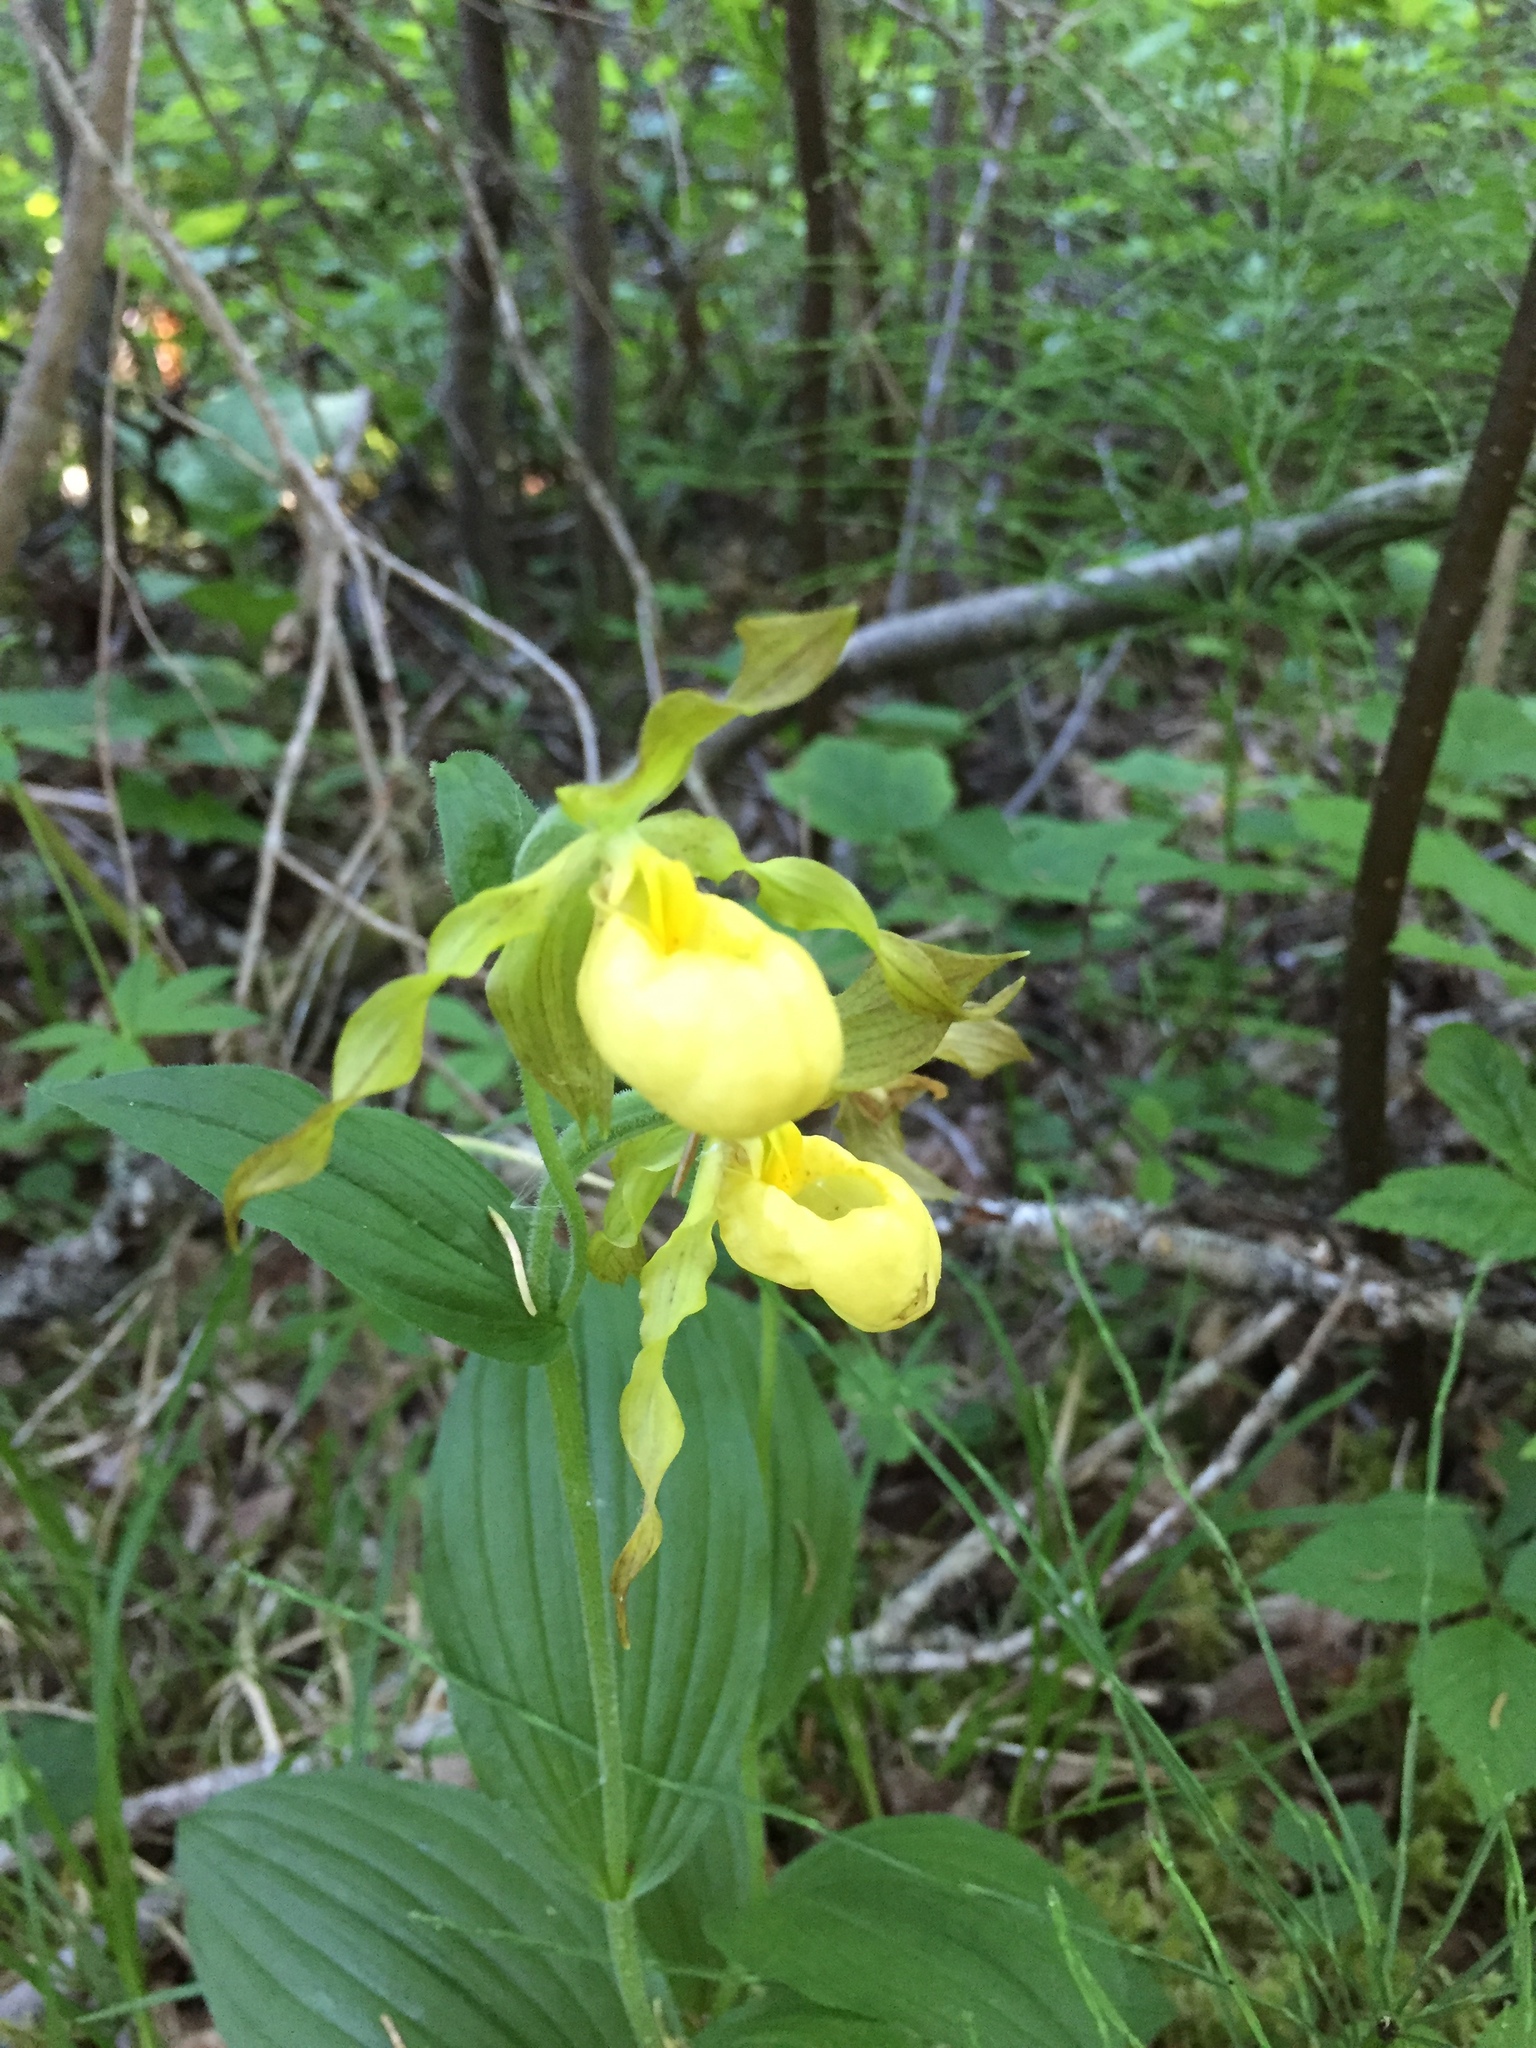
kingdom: Plantae
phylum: Tracheophyta
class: Liliopsida
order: Asparagales
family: Orchidaceae
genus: Cypripedium
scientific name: Cypripedium parviflorum
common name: American yellow lady's-slipper
